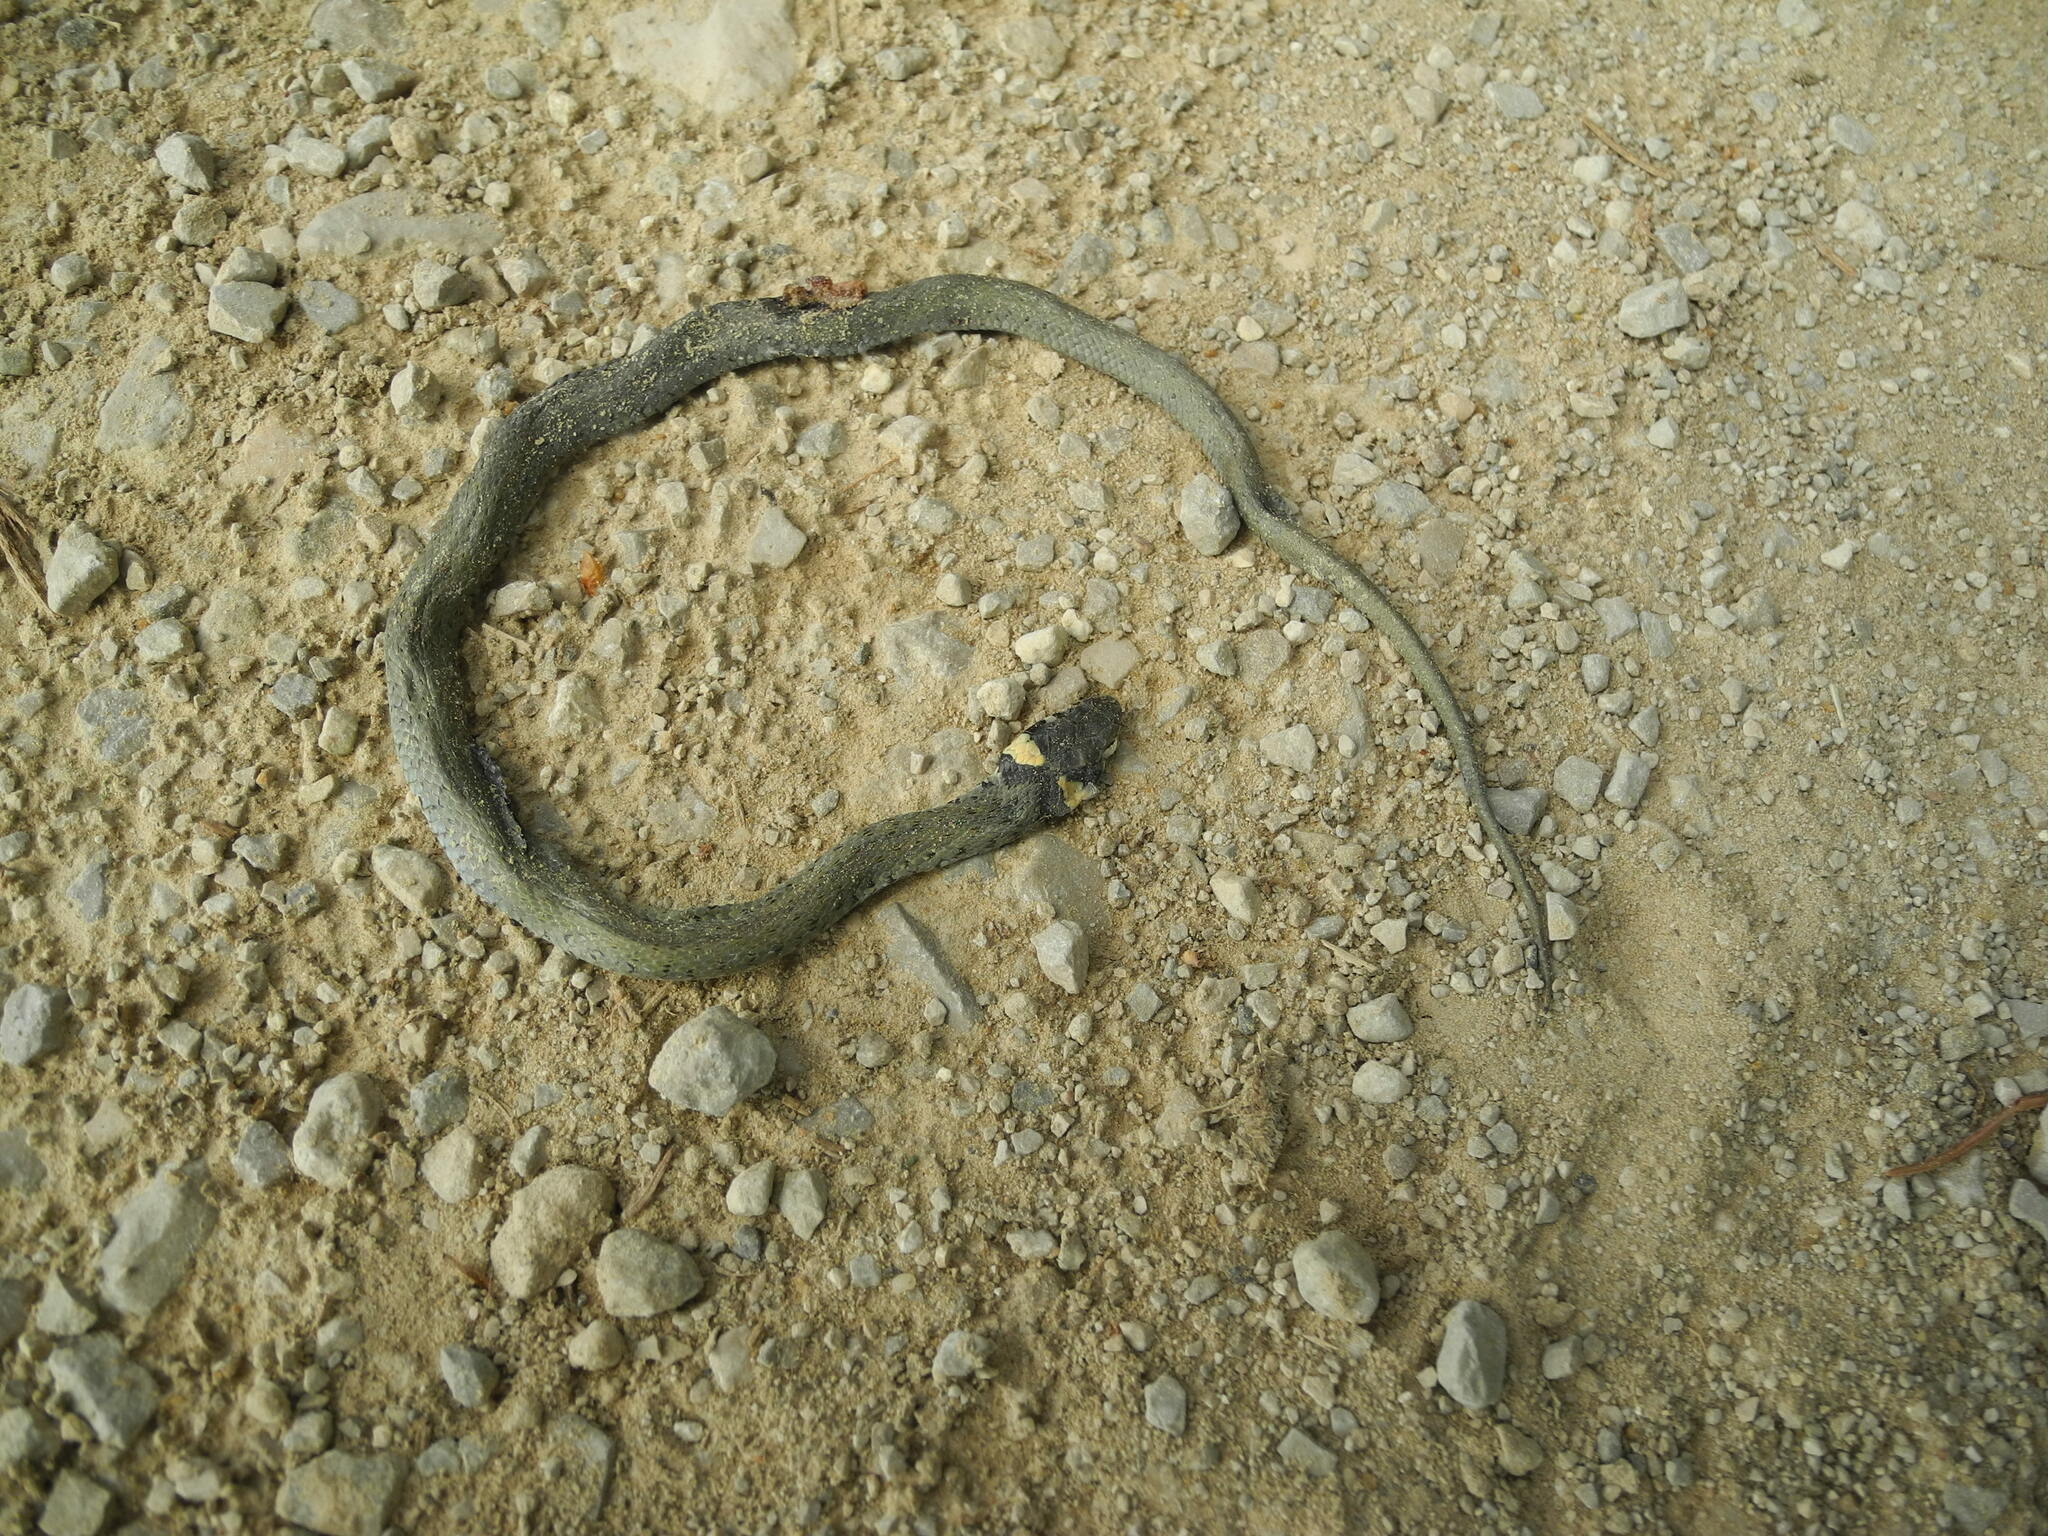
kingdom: Animalia
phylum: Chordata
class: Squamata
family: Colubridae
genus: Natrix
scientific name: Natrix natrix
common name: Grass snake
